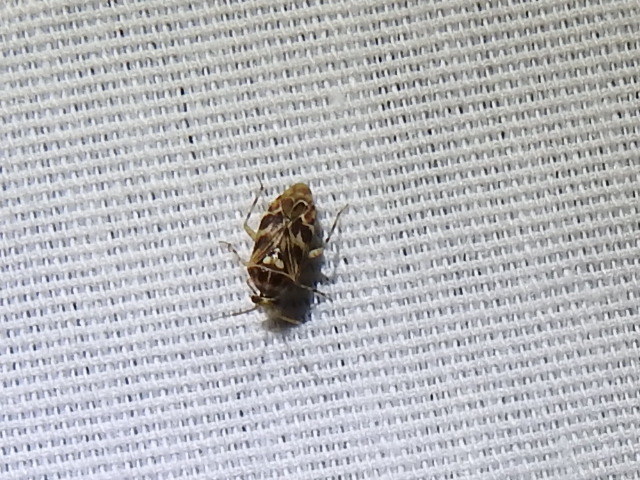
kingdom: Animalia
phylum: Arthropoda
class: Insecta
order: Hemiptera
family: Miridae
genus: Tropidosteptes
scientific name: Tropidosteptes quercicola
